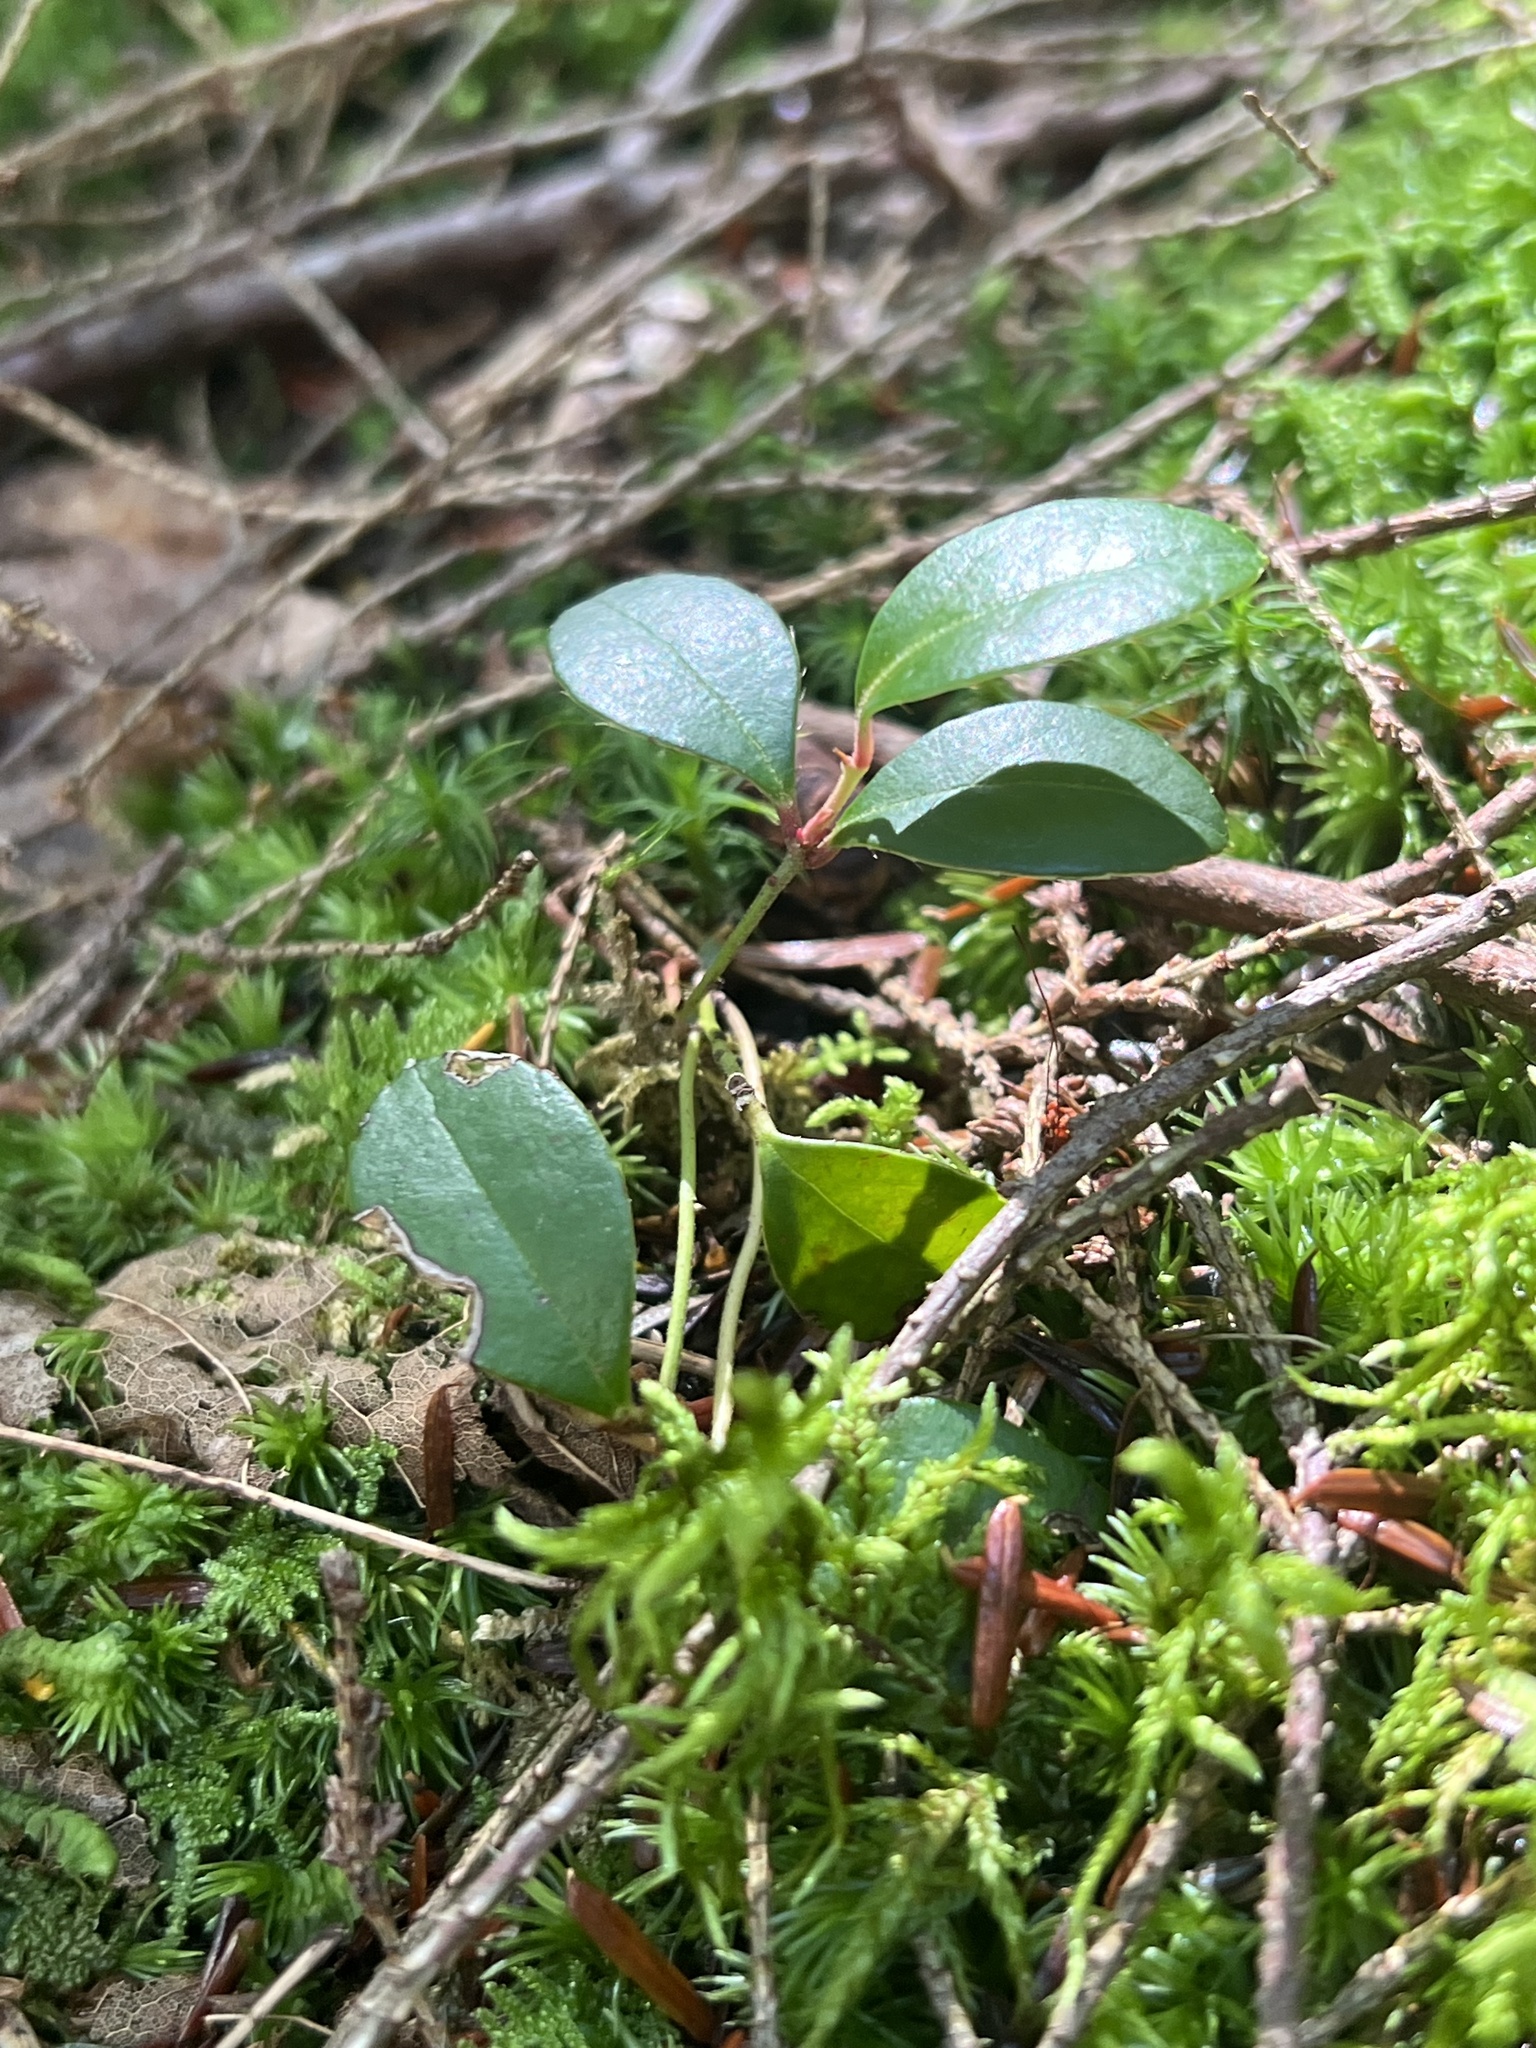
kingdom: Plantae
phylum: Tracheophyta
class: Magnoliopsida
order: Ericales
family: Ericaceae
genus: Gaultheria
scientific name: Gaultheria procumbens
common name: Checkerberry
